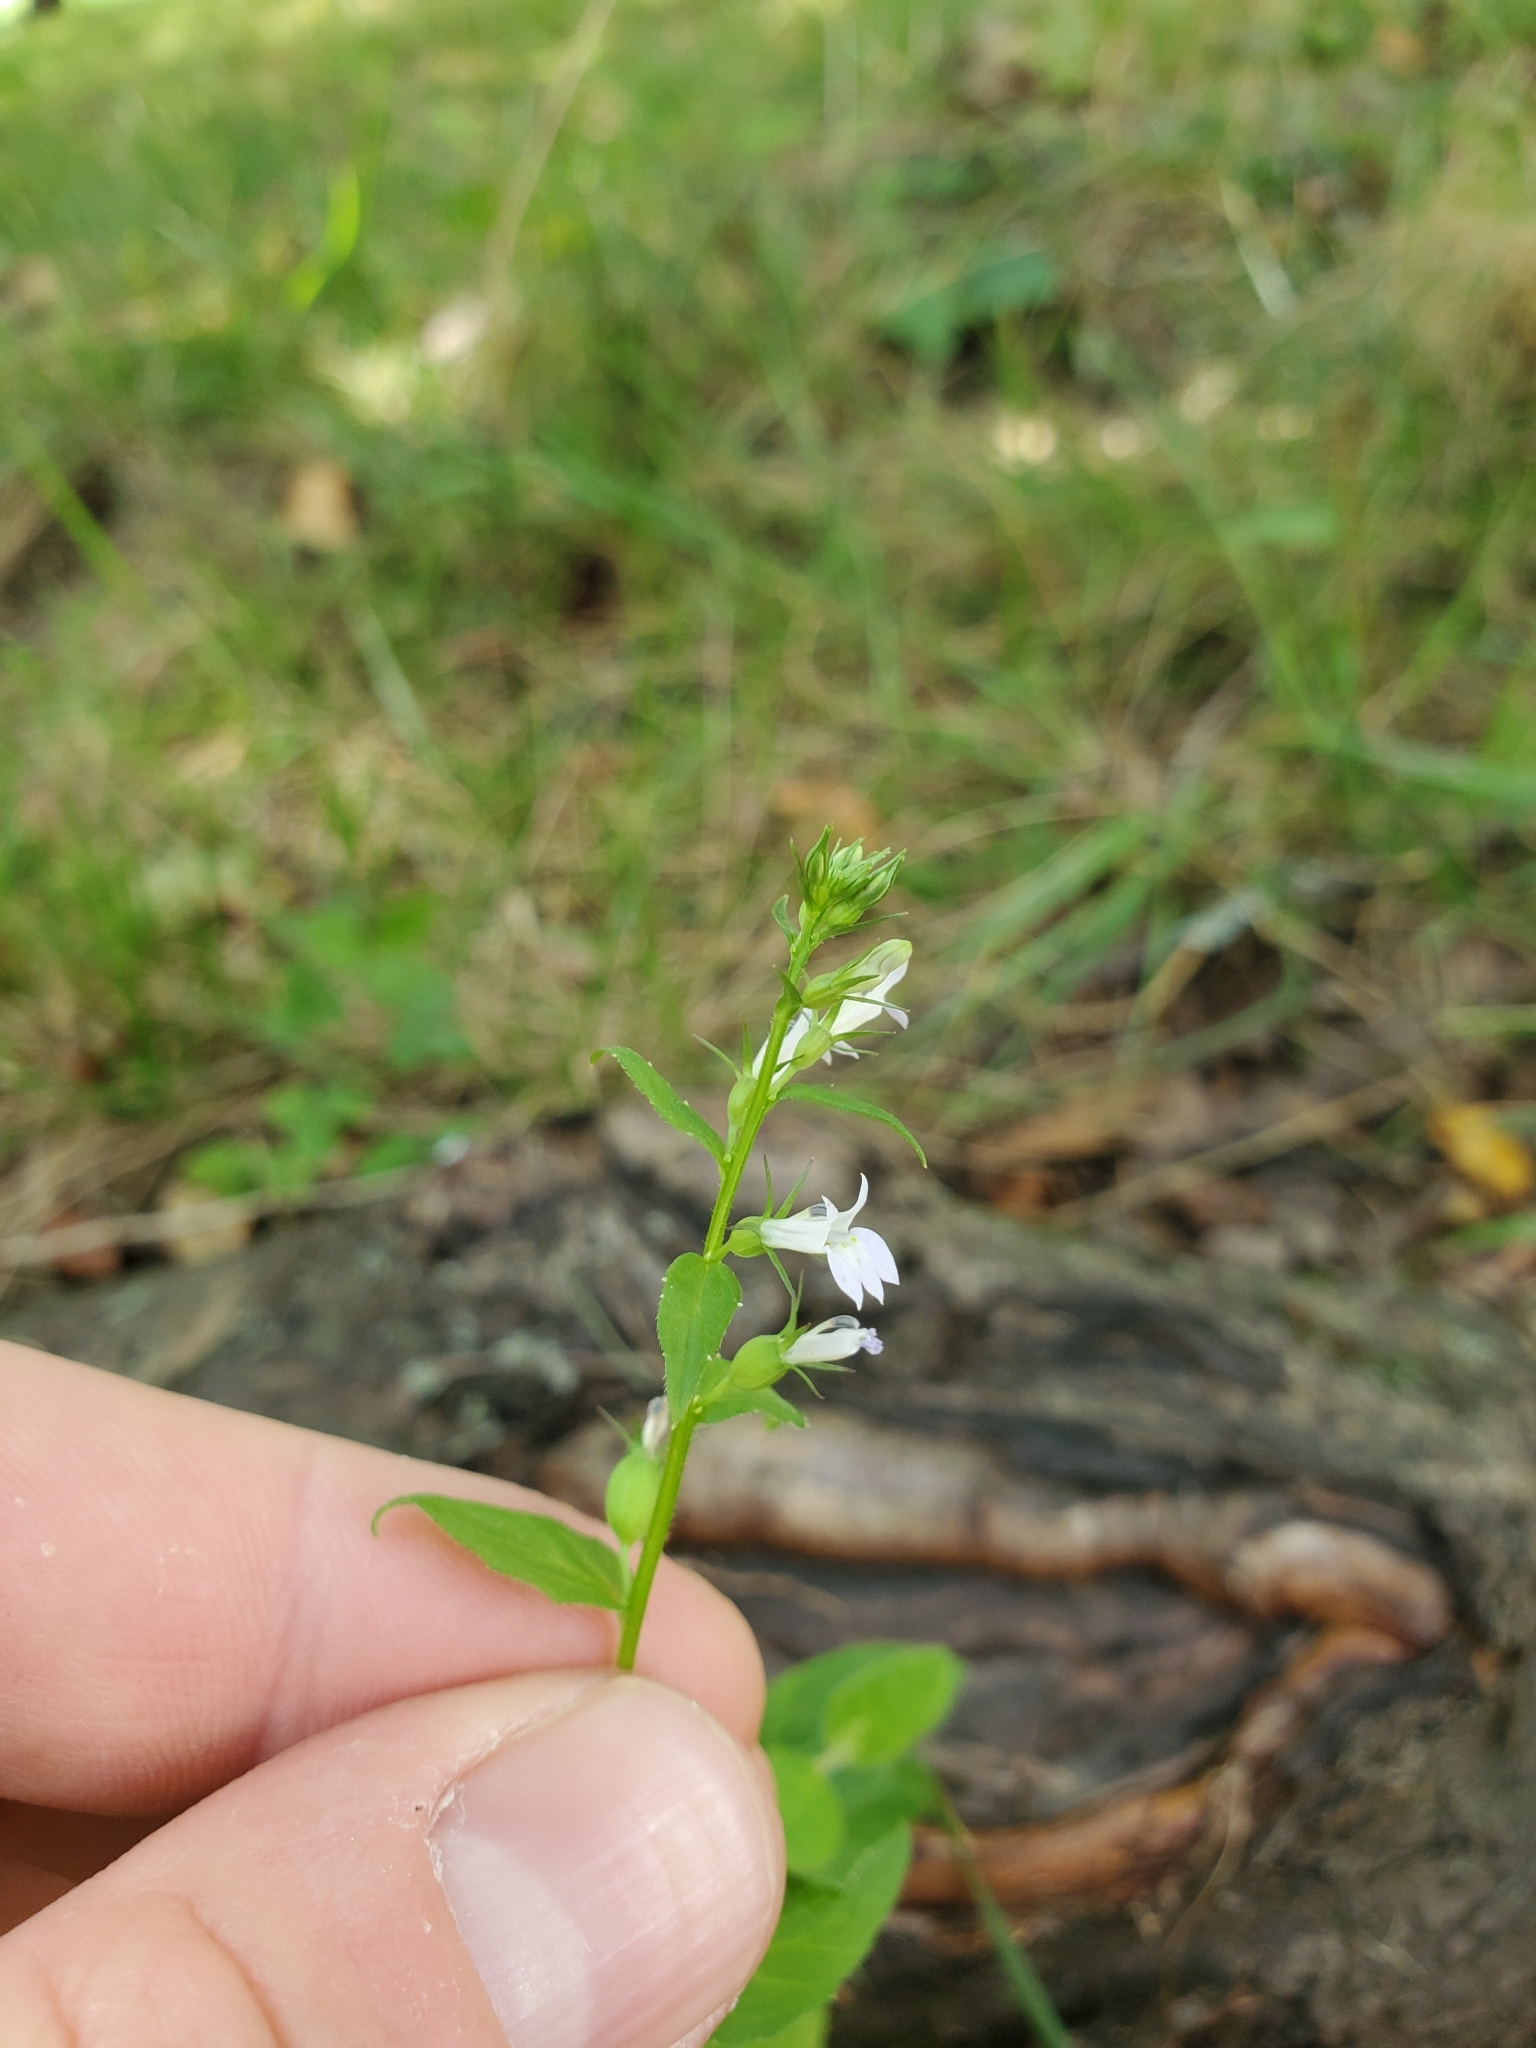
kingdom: Plantae
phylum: Tracheophyta
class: Magnoliopsida
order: Asterales
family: Campanulaceae
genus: Lobelia
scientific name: Lobelia inflata
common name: Indian tobacco
